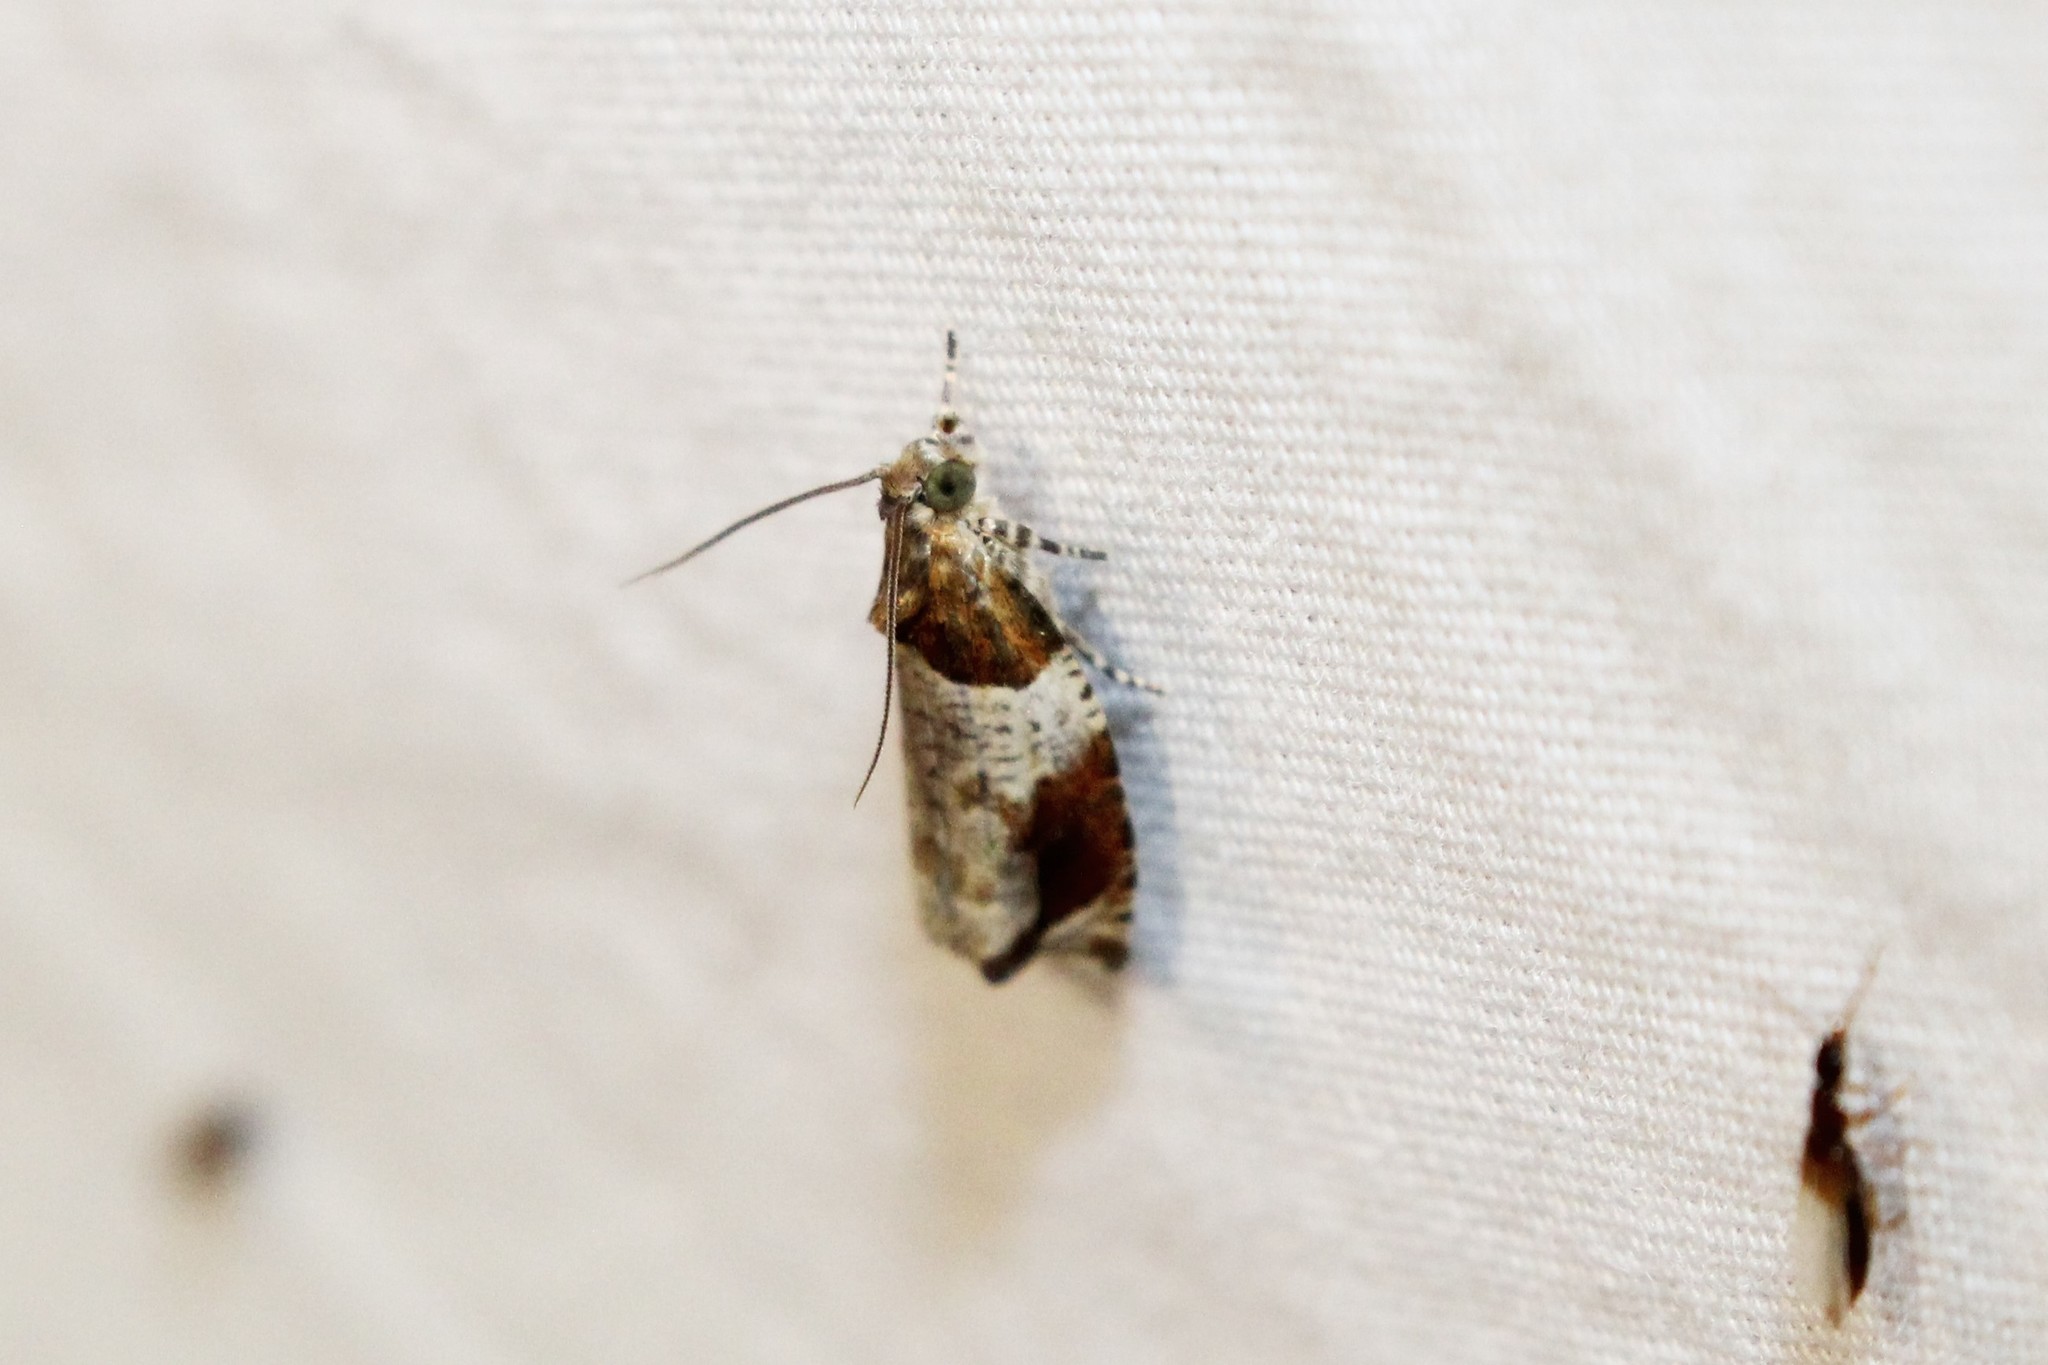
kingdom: Animalia
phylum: Arthropoda
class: Insecta
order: Lepidoptera
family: Tortricidae
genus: Olethreutes
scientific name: Olethreutes ferriferana
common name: Hydrangea leaftier moth
